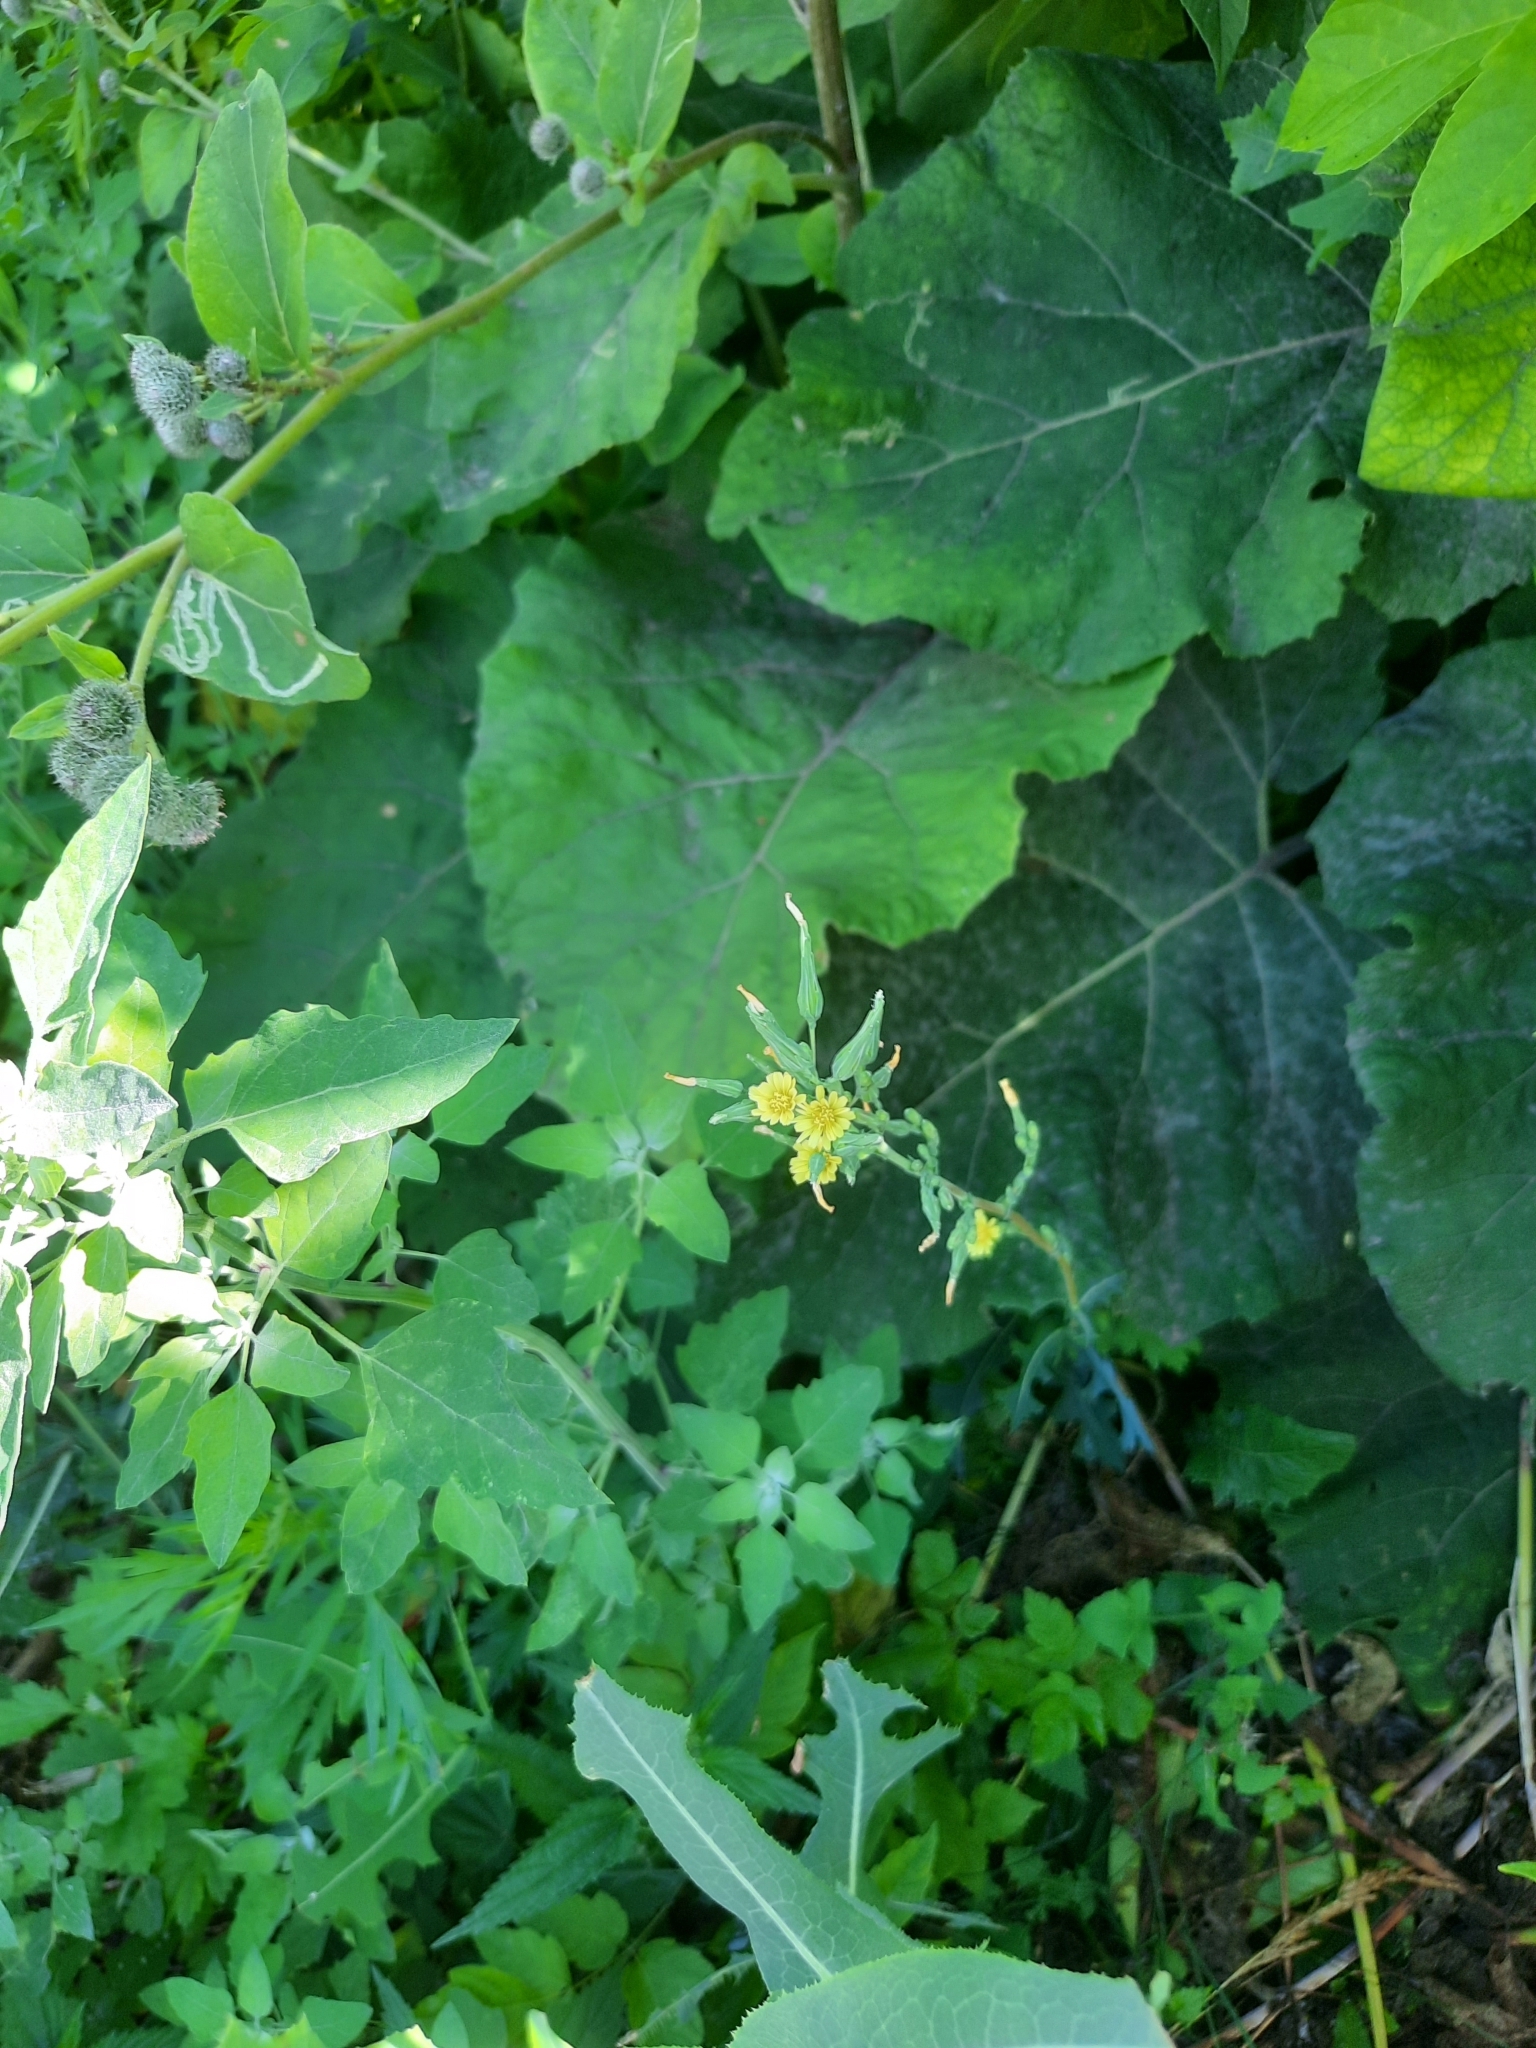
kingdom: Plantae
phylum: Tracheophyta
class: Magnoliopsida
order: Asterales
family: Asteraceae
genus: Lactuca
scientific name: Lactuca serriola
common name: Prickly lettuce
